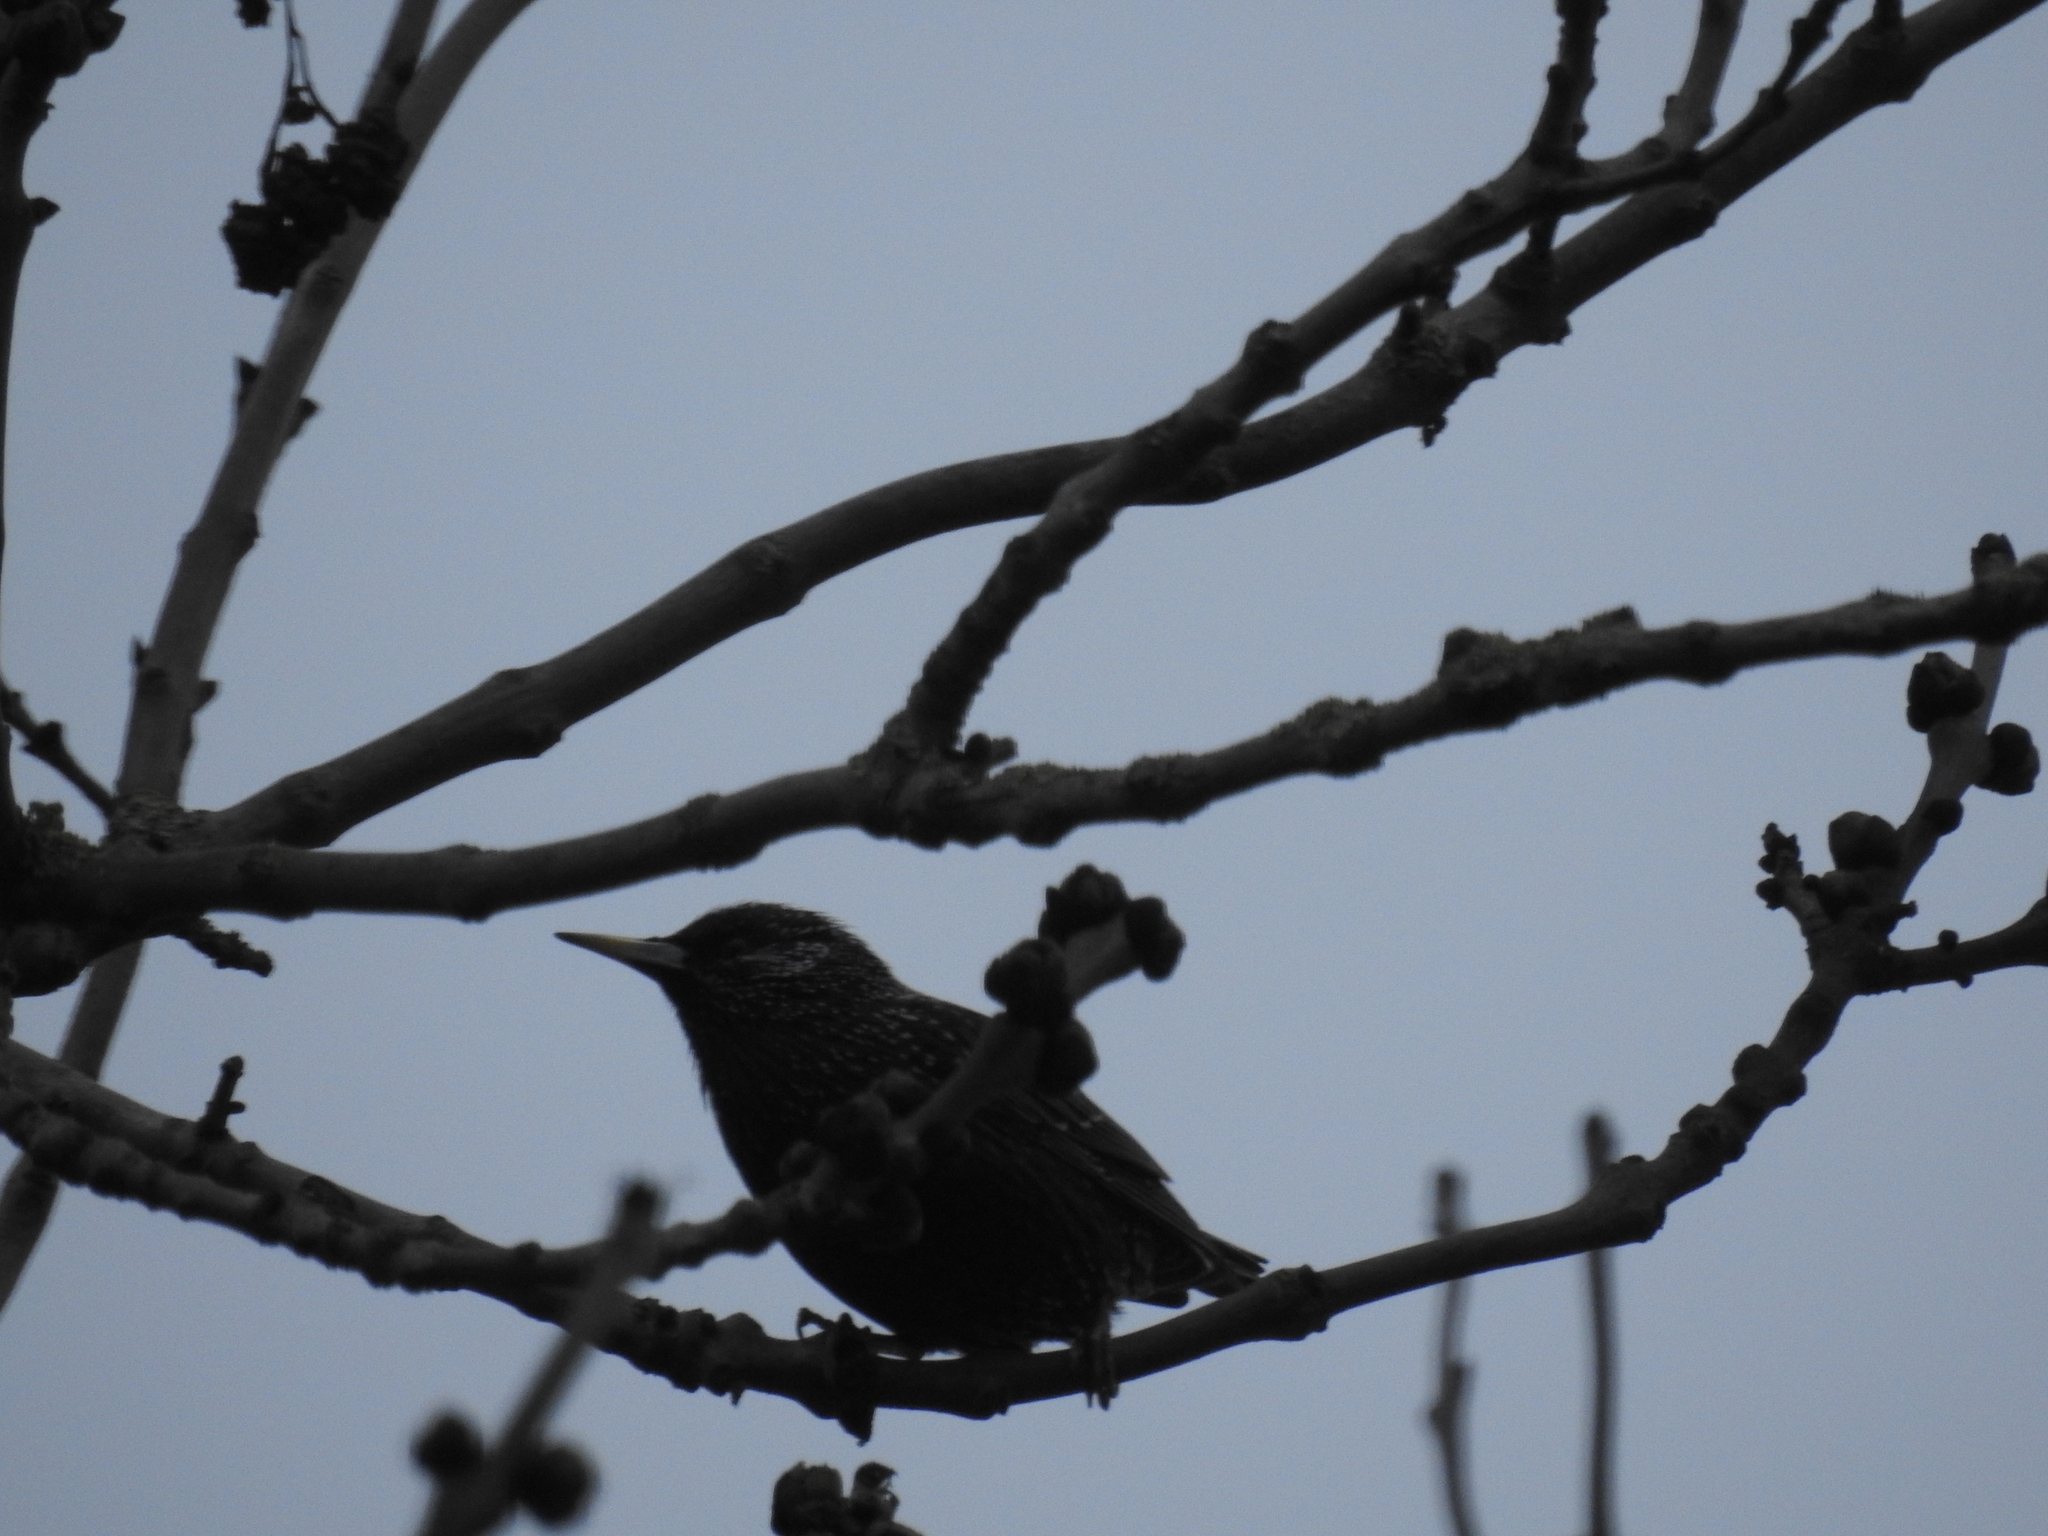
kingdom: Animalia
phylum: Chordata
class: Aves
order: Passeriformes
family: Sturnidae
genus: Sturnus
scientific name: Sturnus vulgaris
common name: Common starling
